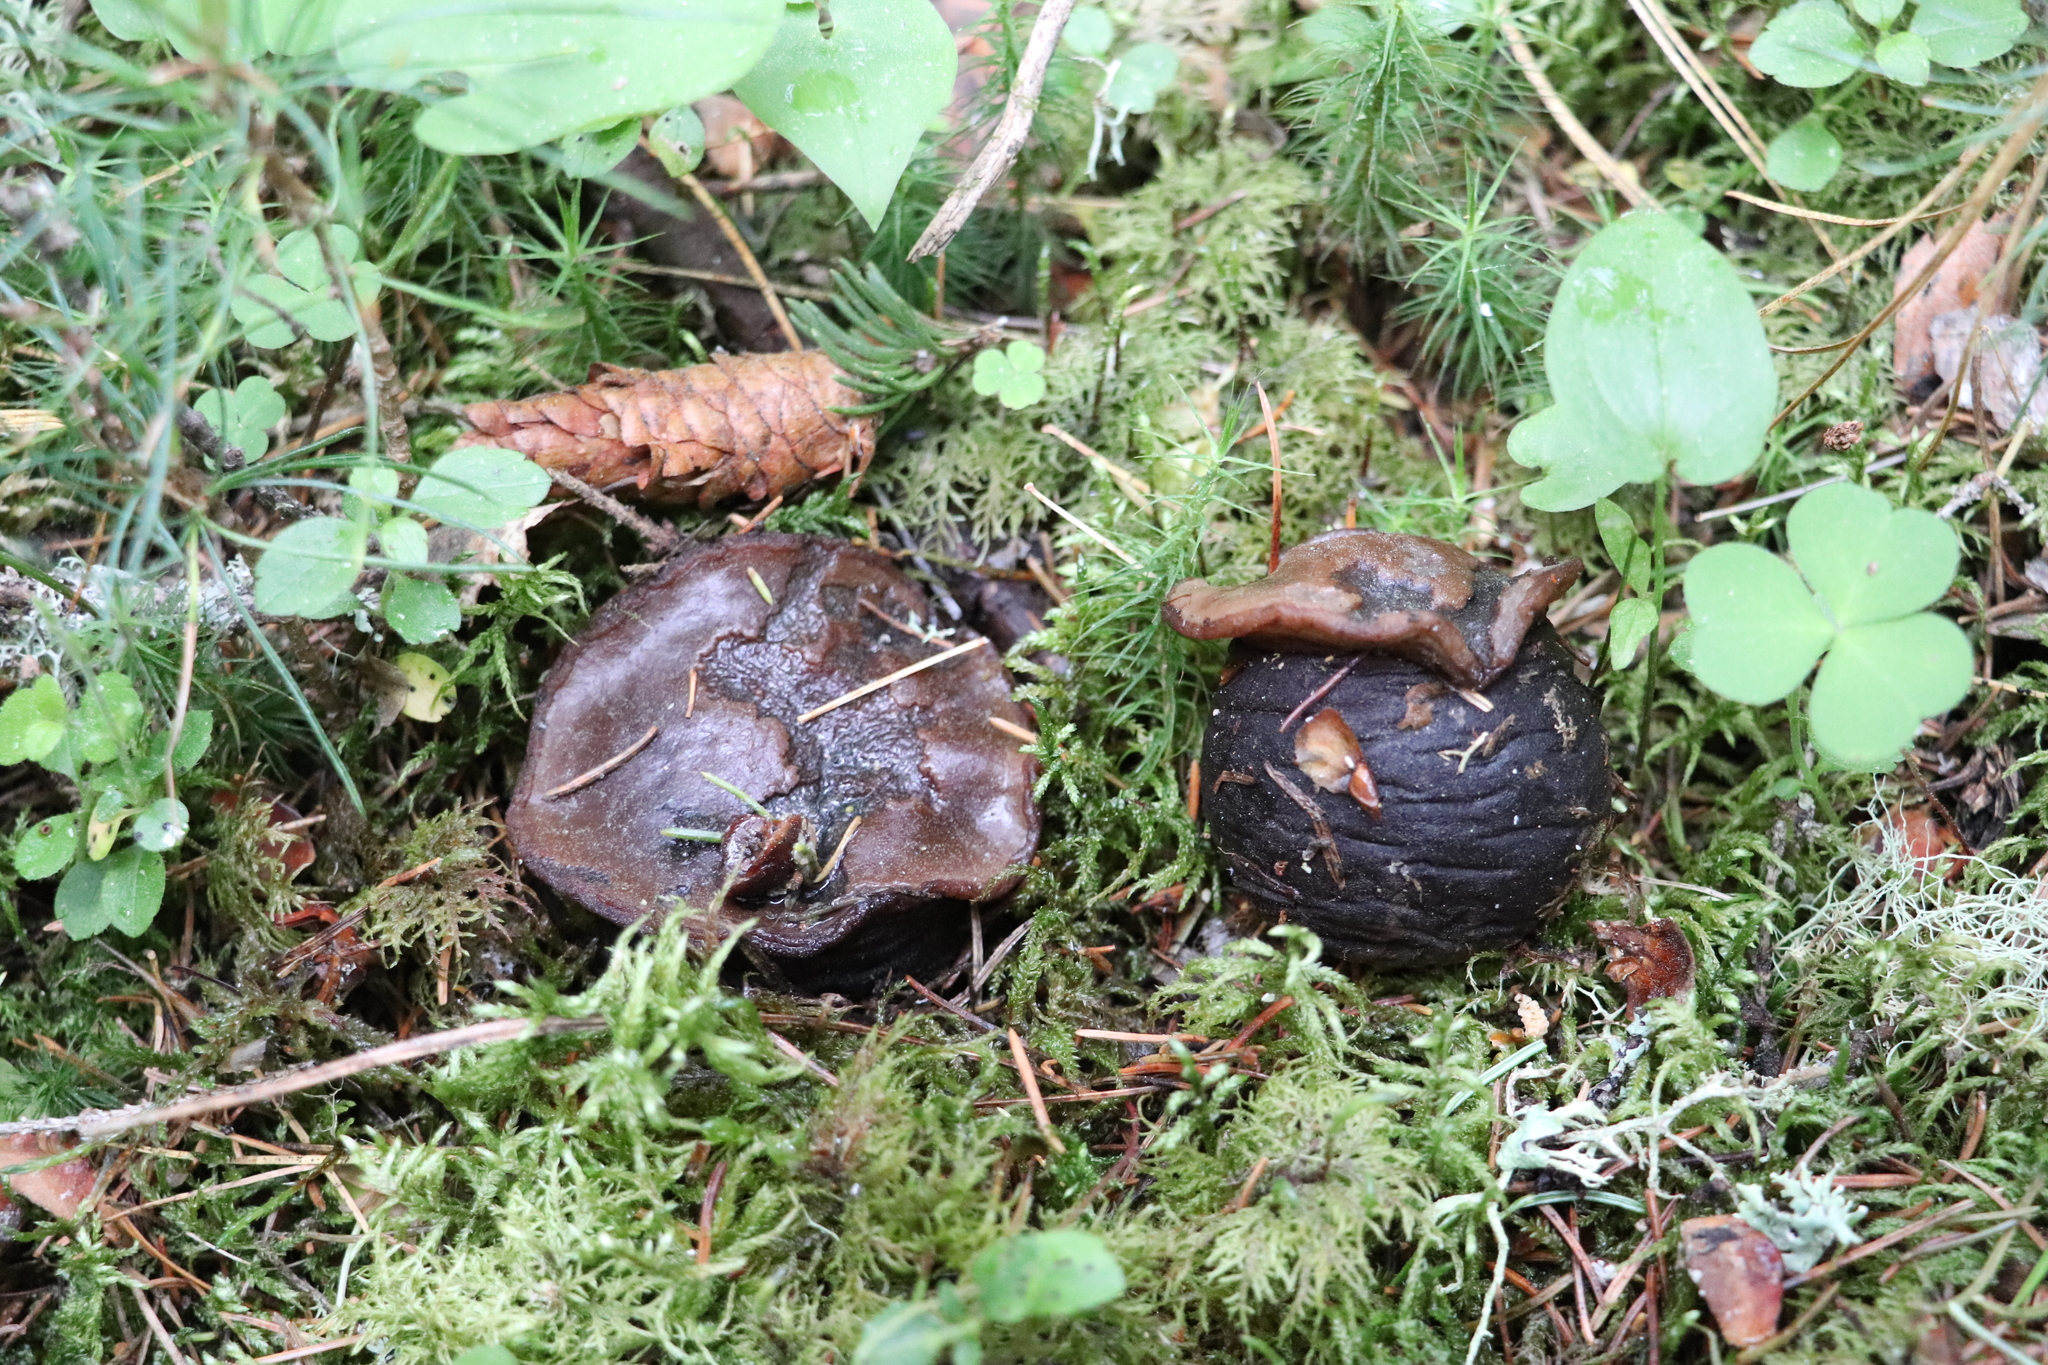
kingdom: Fungi
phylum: Ascomycota
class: Pezizomycetes
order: Pezizales
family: Sarcosomataceae
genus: Sarcosoma
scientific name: Sarcosoma globosum
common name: Charred-pancake cup
